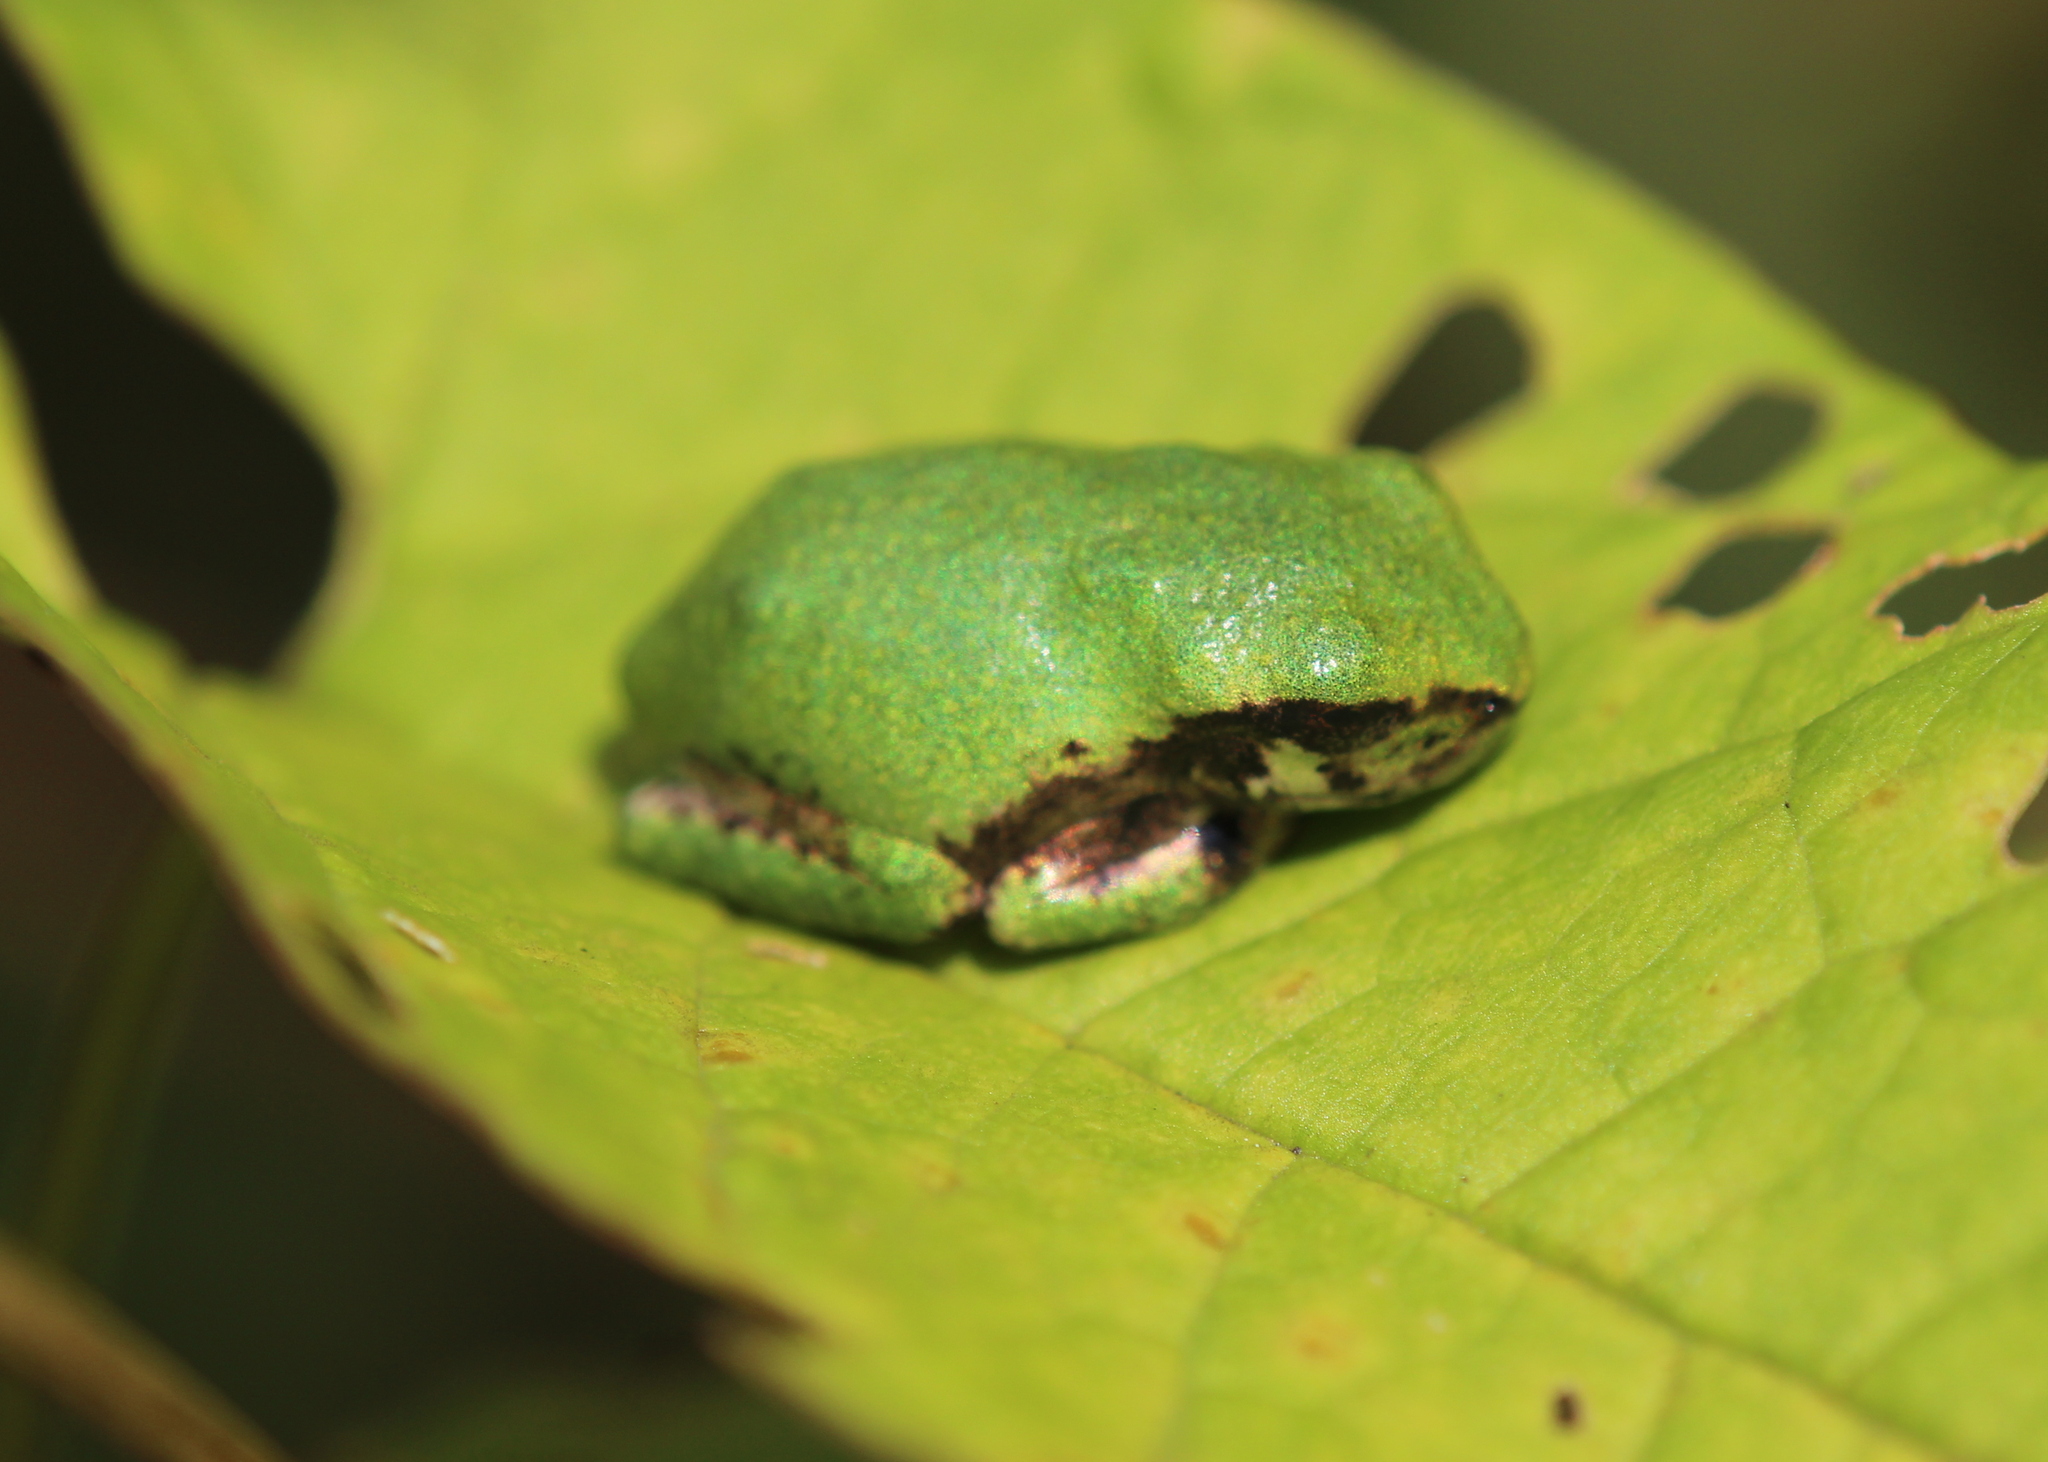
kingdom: Animalia
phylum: Chordata
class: Amphibia
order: Anura
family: Hylidae
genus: Dryophytes
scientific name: Dryophytes versicolor
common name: Gray treefrog
